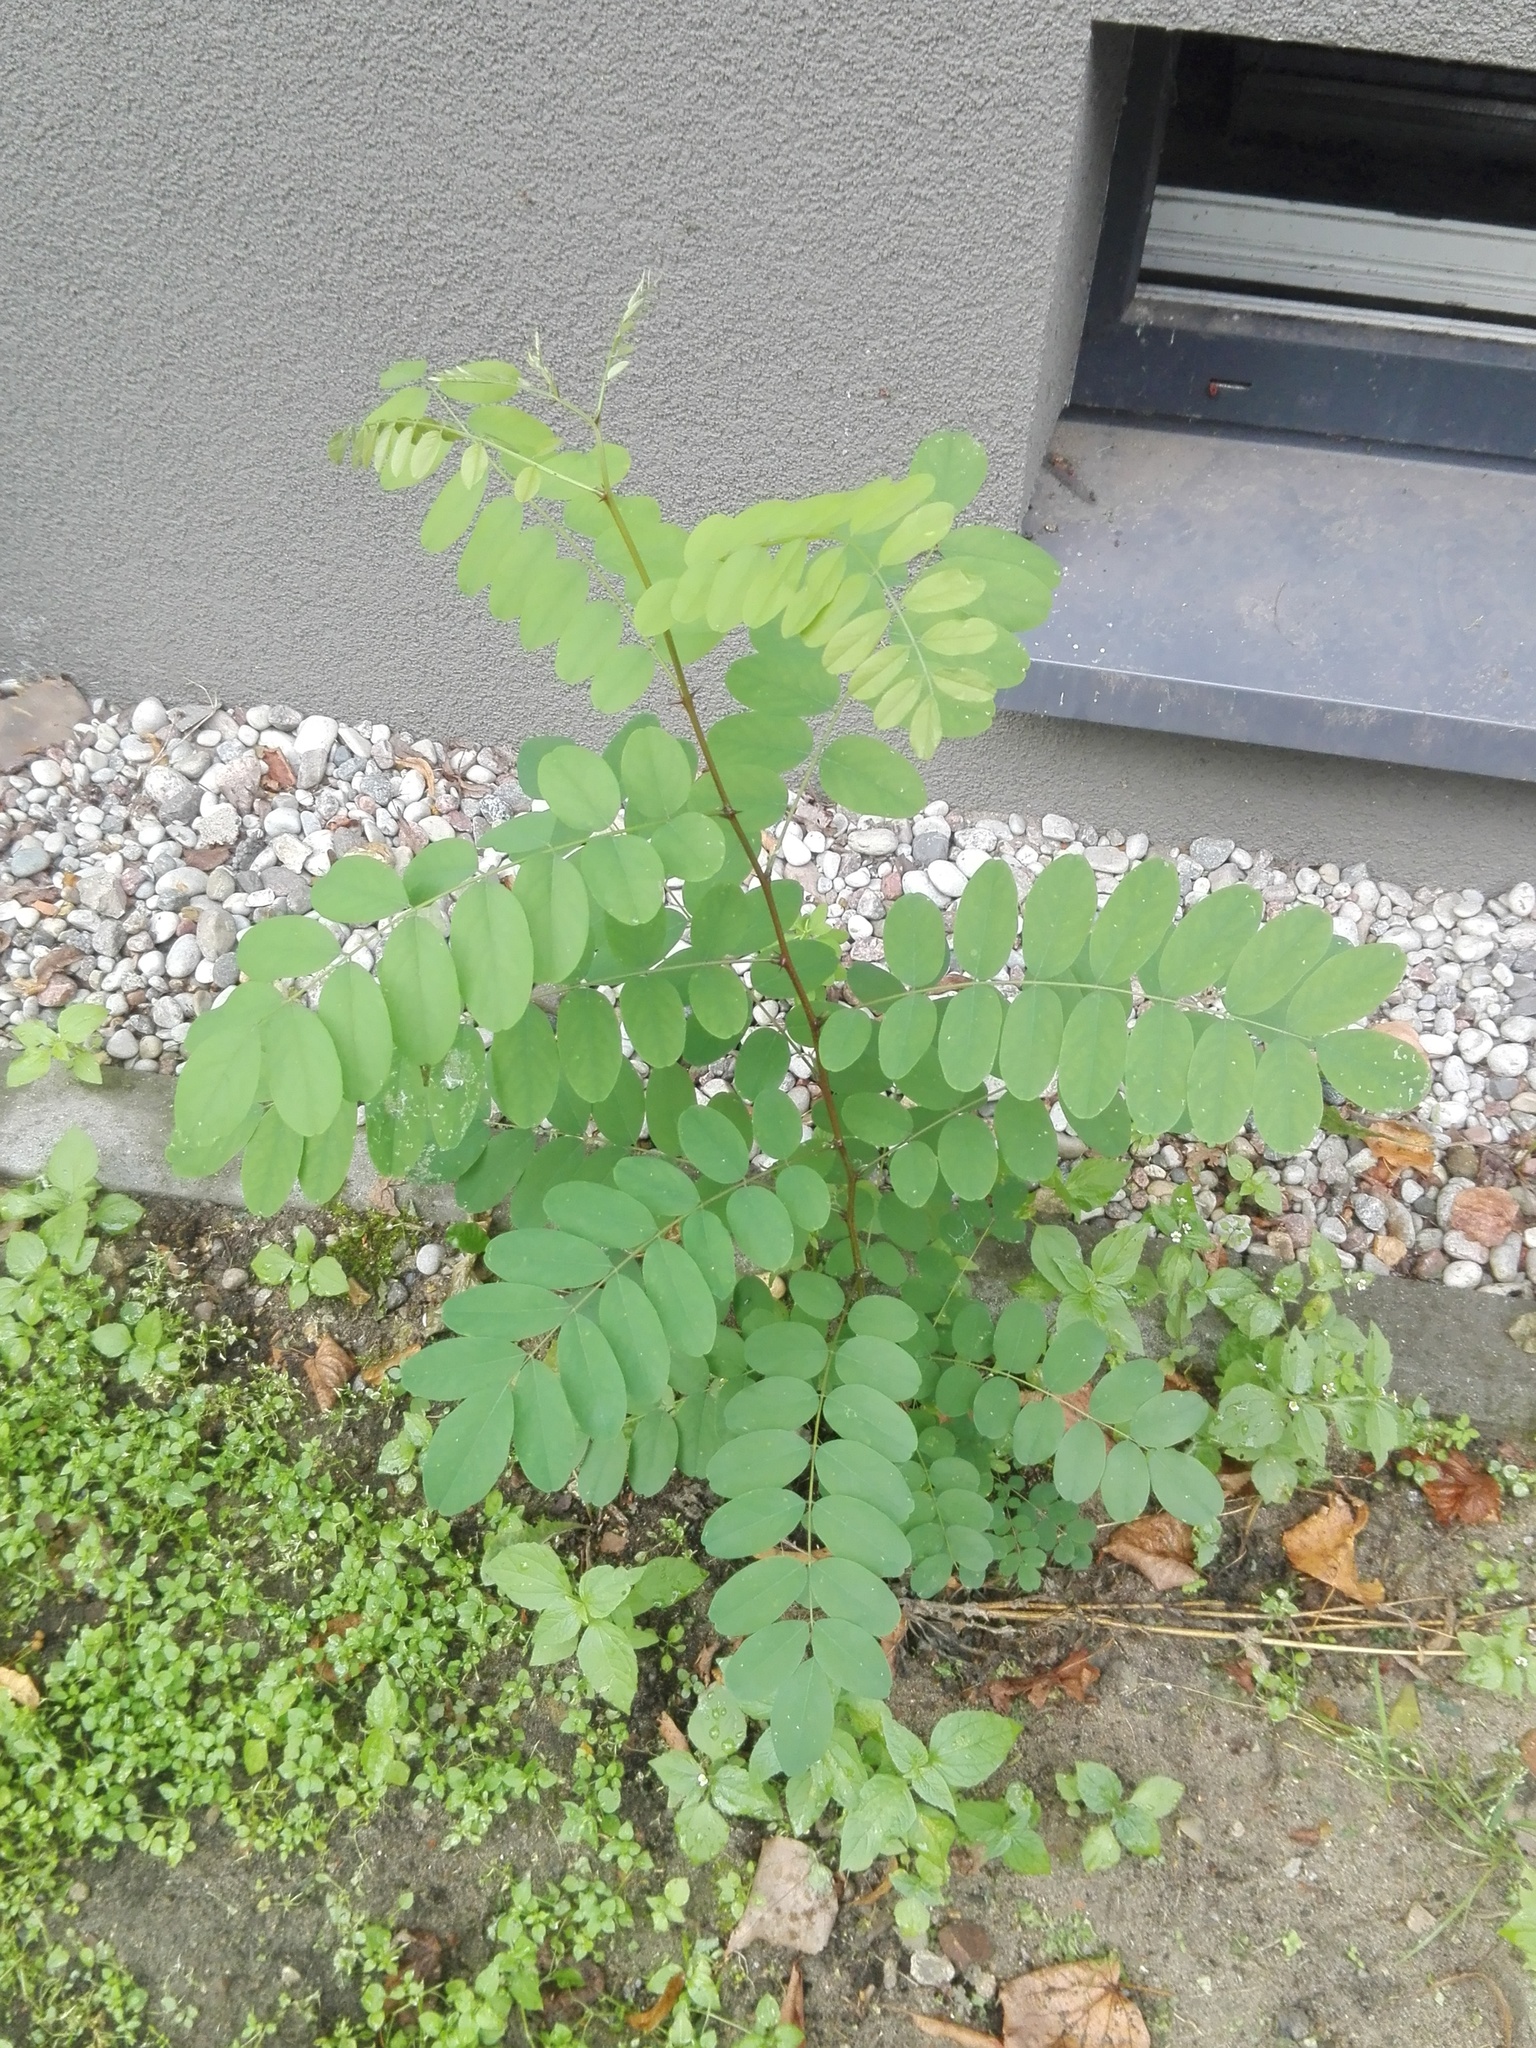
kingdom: Plantae
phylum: Tracheophyta
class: Magnoliopsida
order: Fabales
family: Fabaceae
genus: Robinia
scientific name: Robinia pseudoacacia
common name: Black locust
